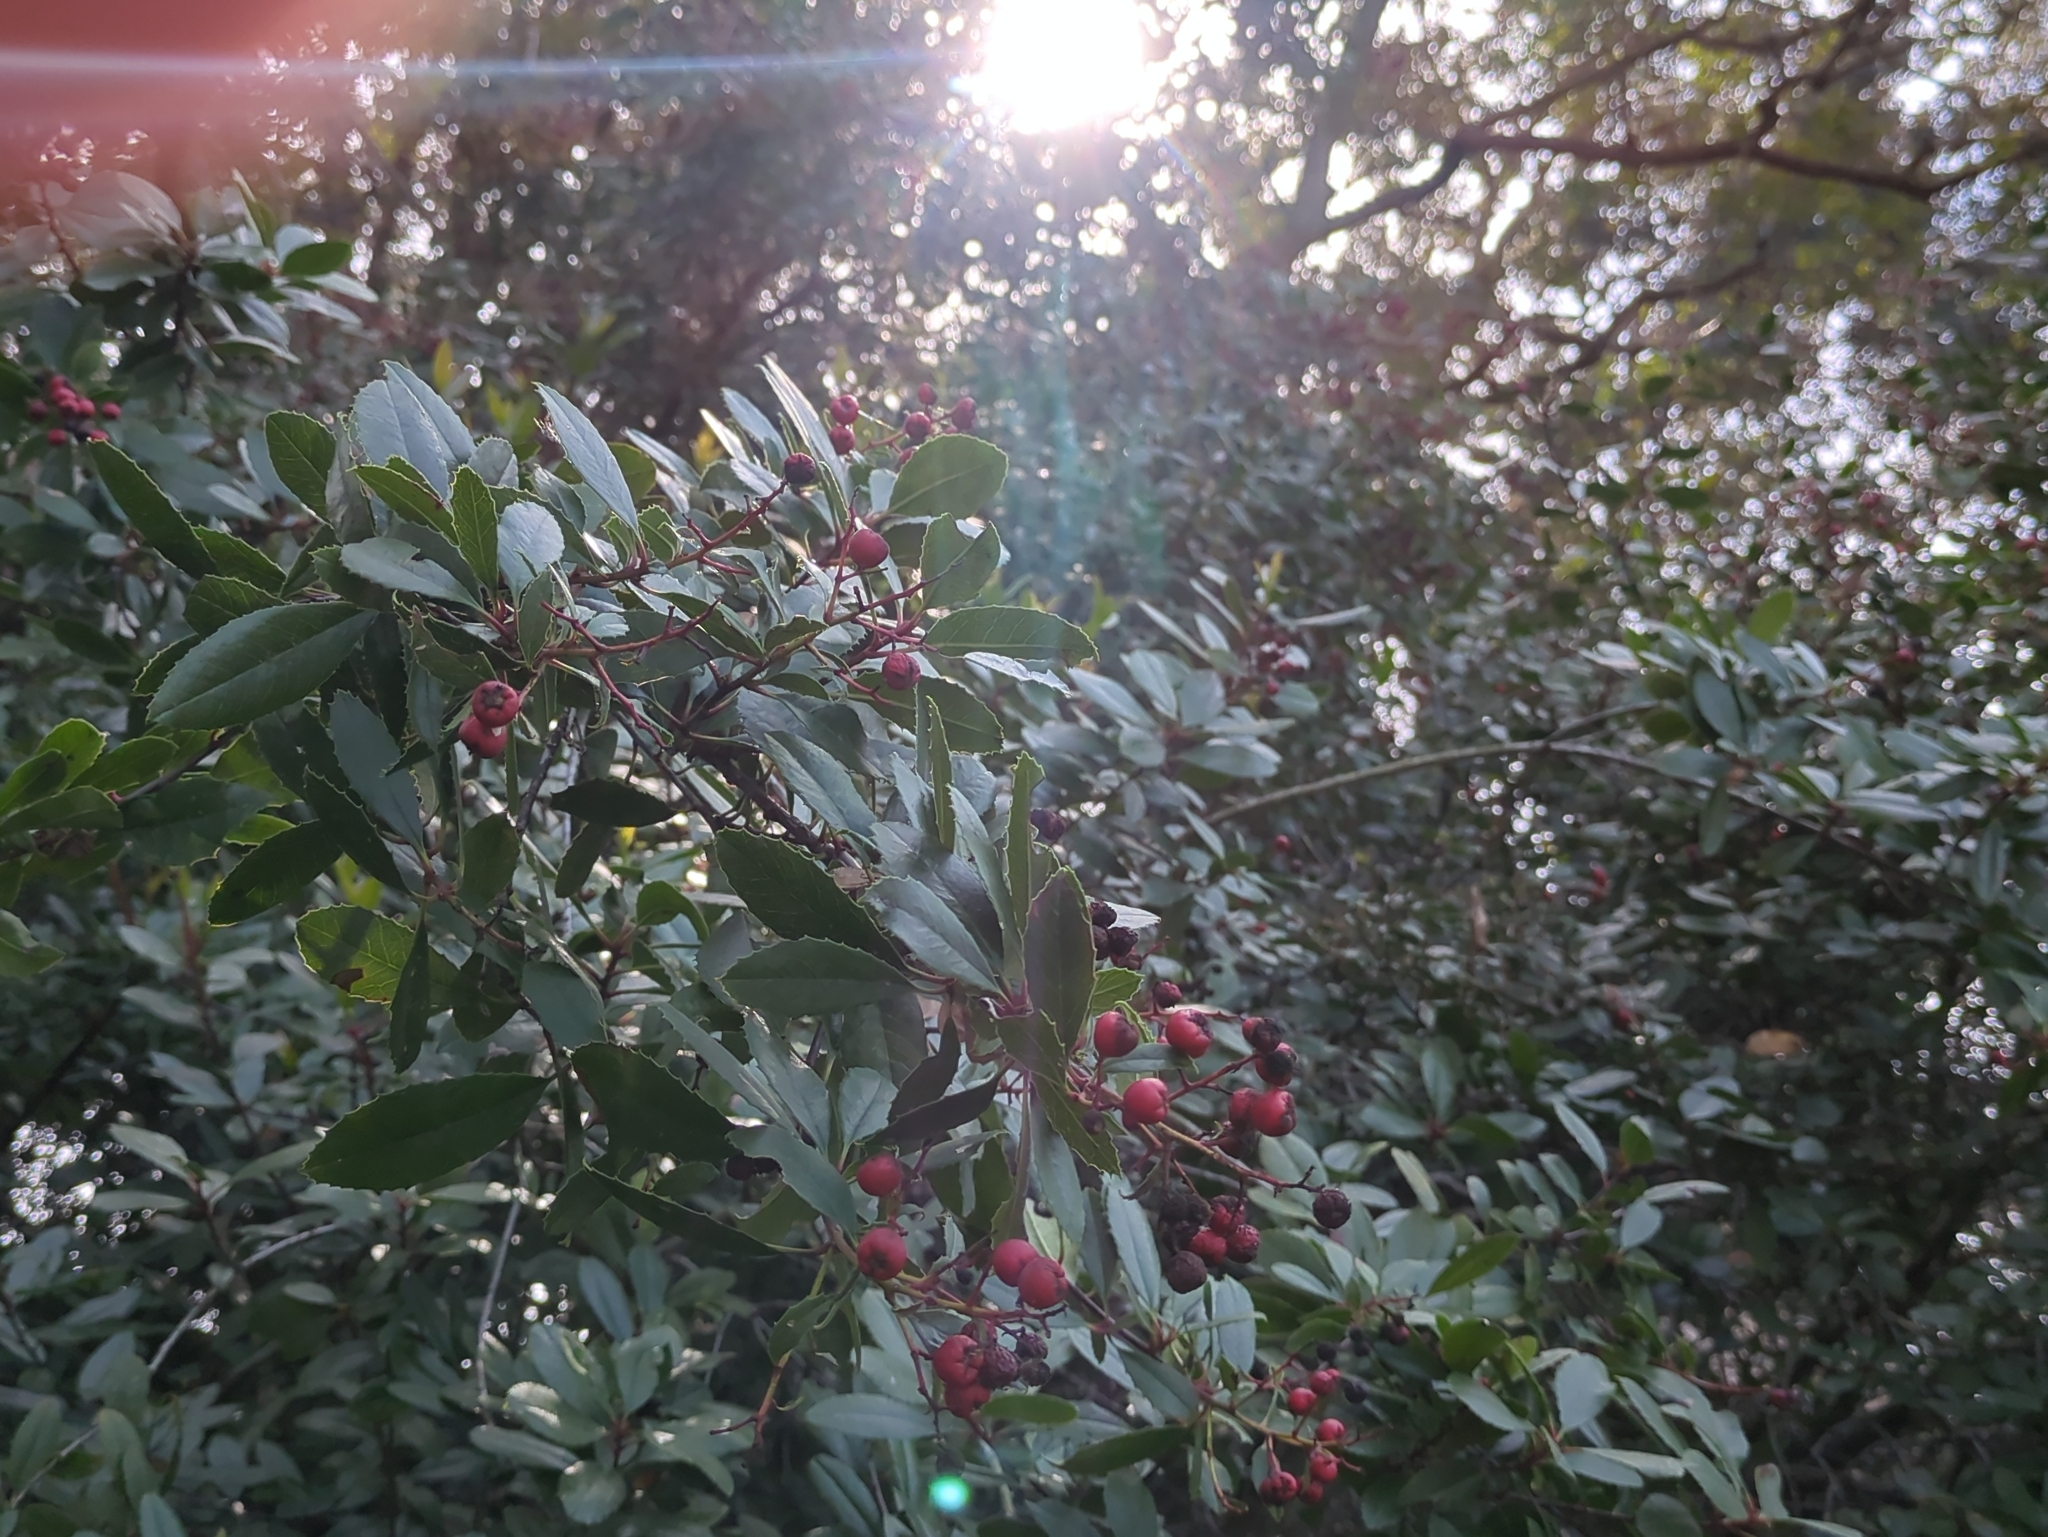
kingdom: Plantae
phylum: Tracheophyta
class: Magnoliopsida
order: Rosales
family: Rosaceae
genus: Heteromeles
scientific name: Heteromeles arbutifolia
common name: California-holly
